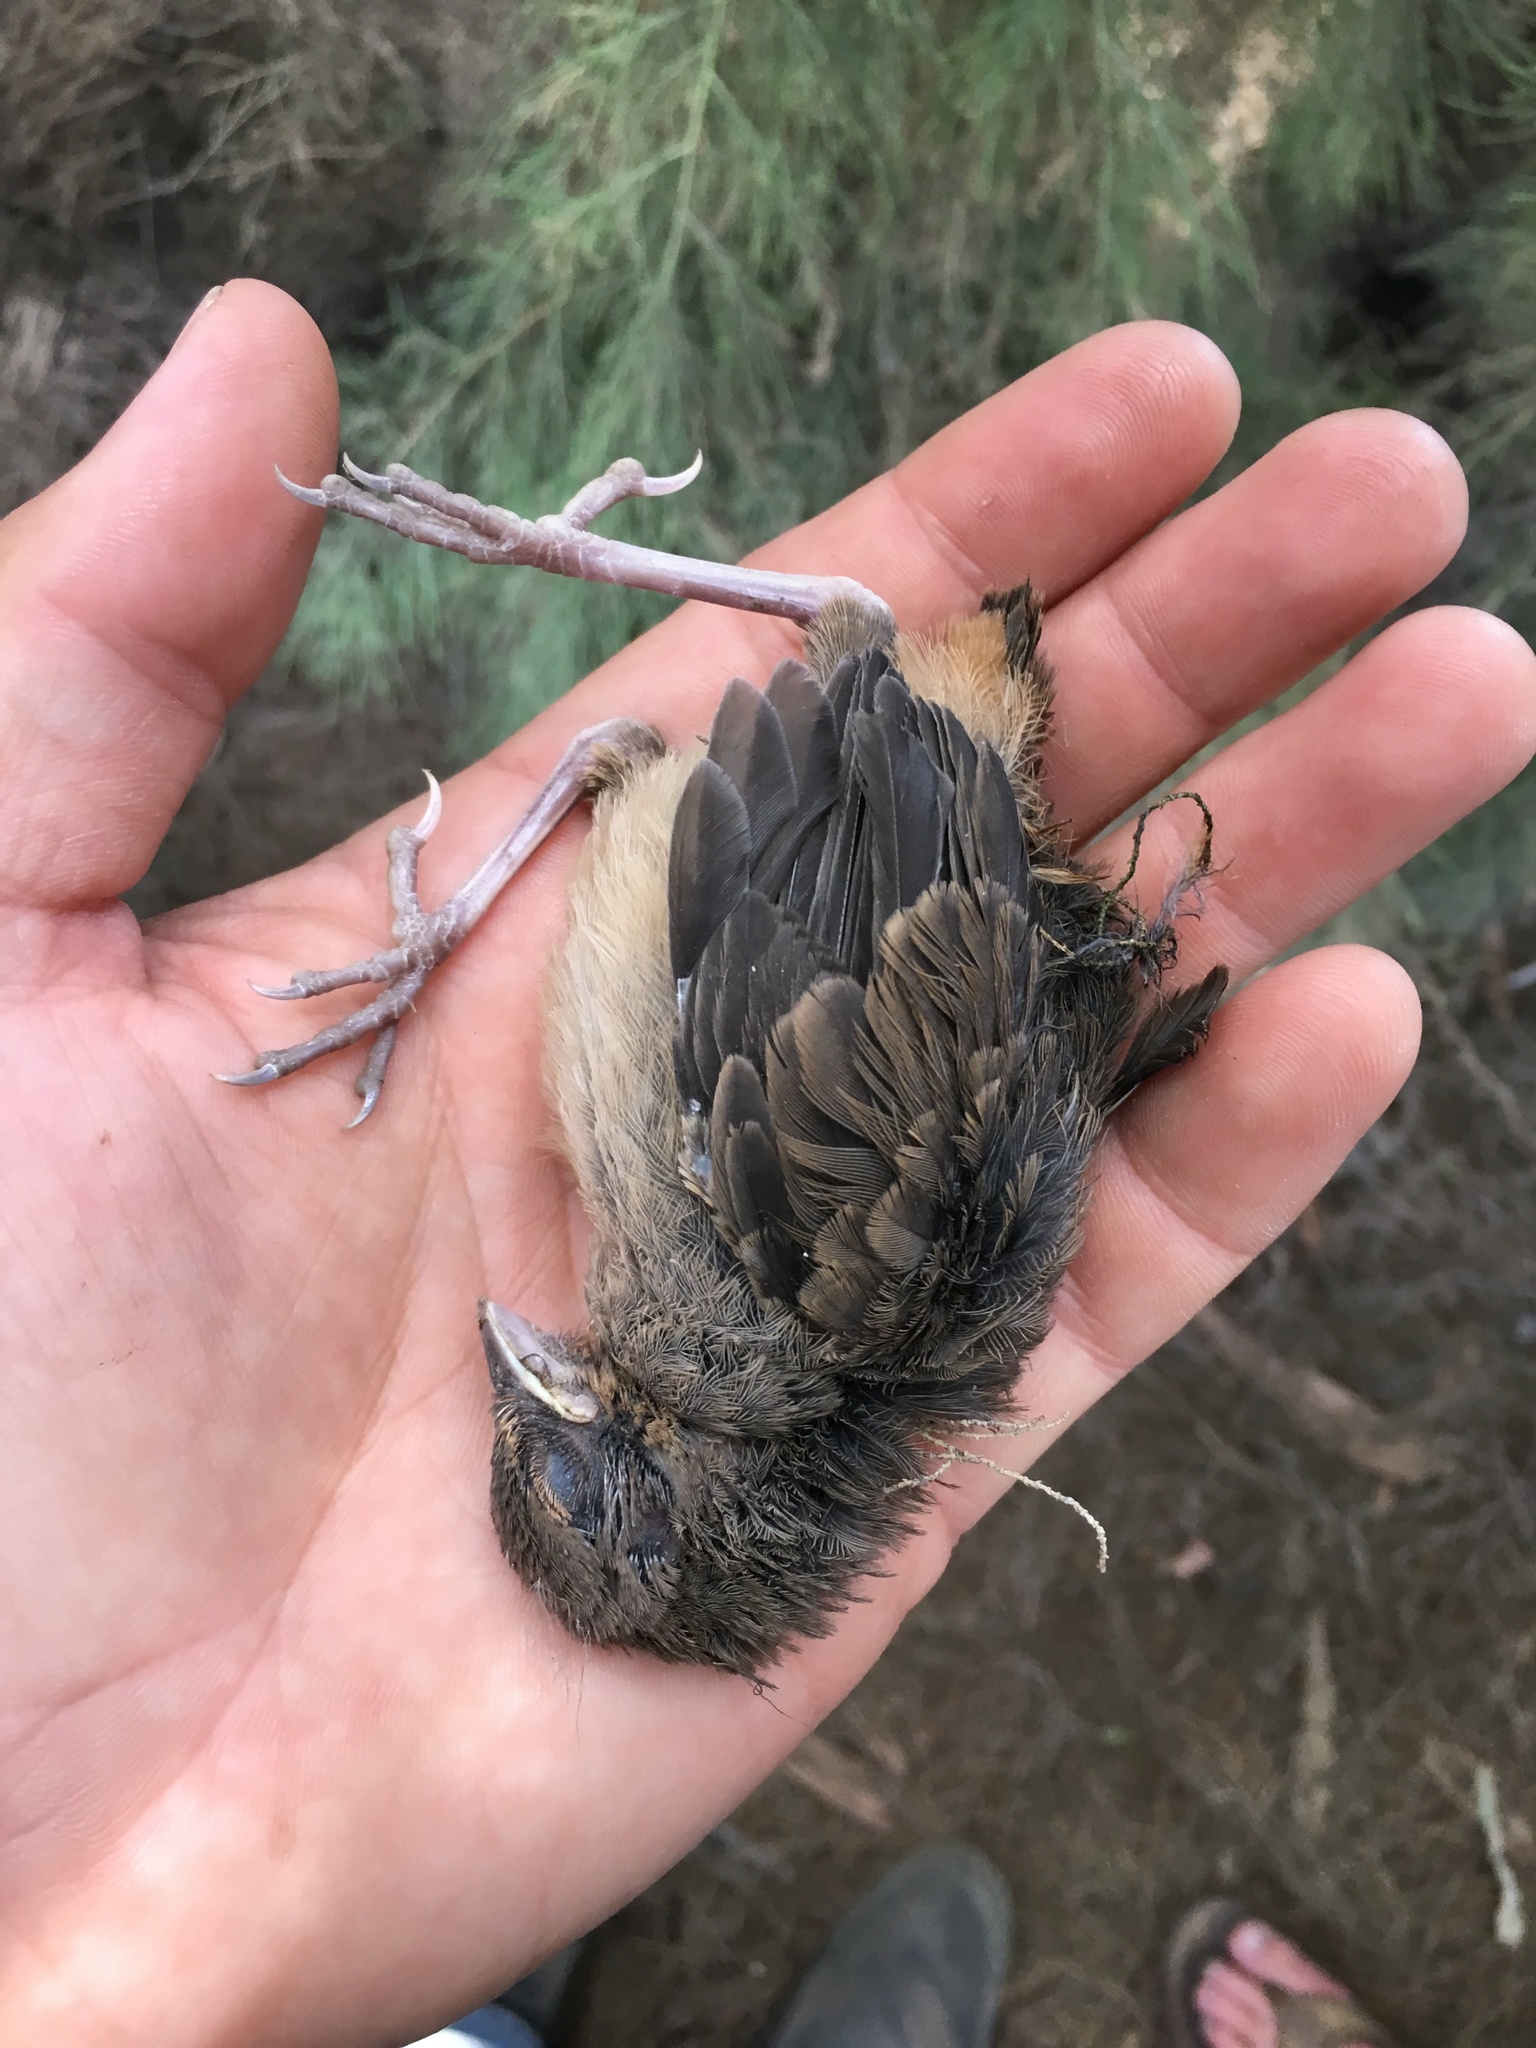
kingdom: Animalia
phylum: Chordata
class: Aves
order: Passeriformes
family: Passerellidae
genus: Melozone
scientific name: Melozone crissalis
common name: California towhee
